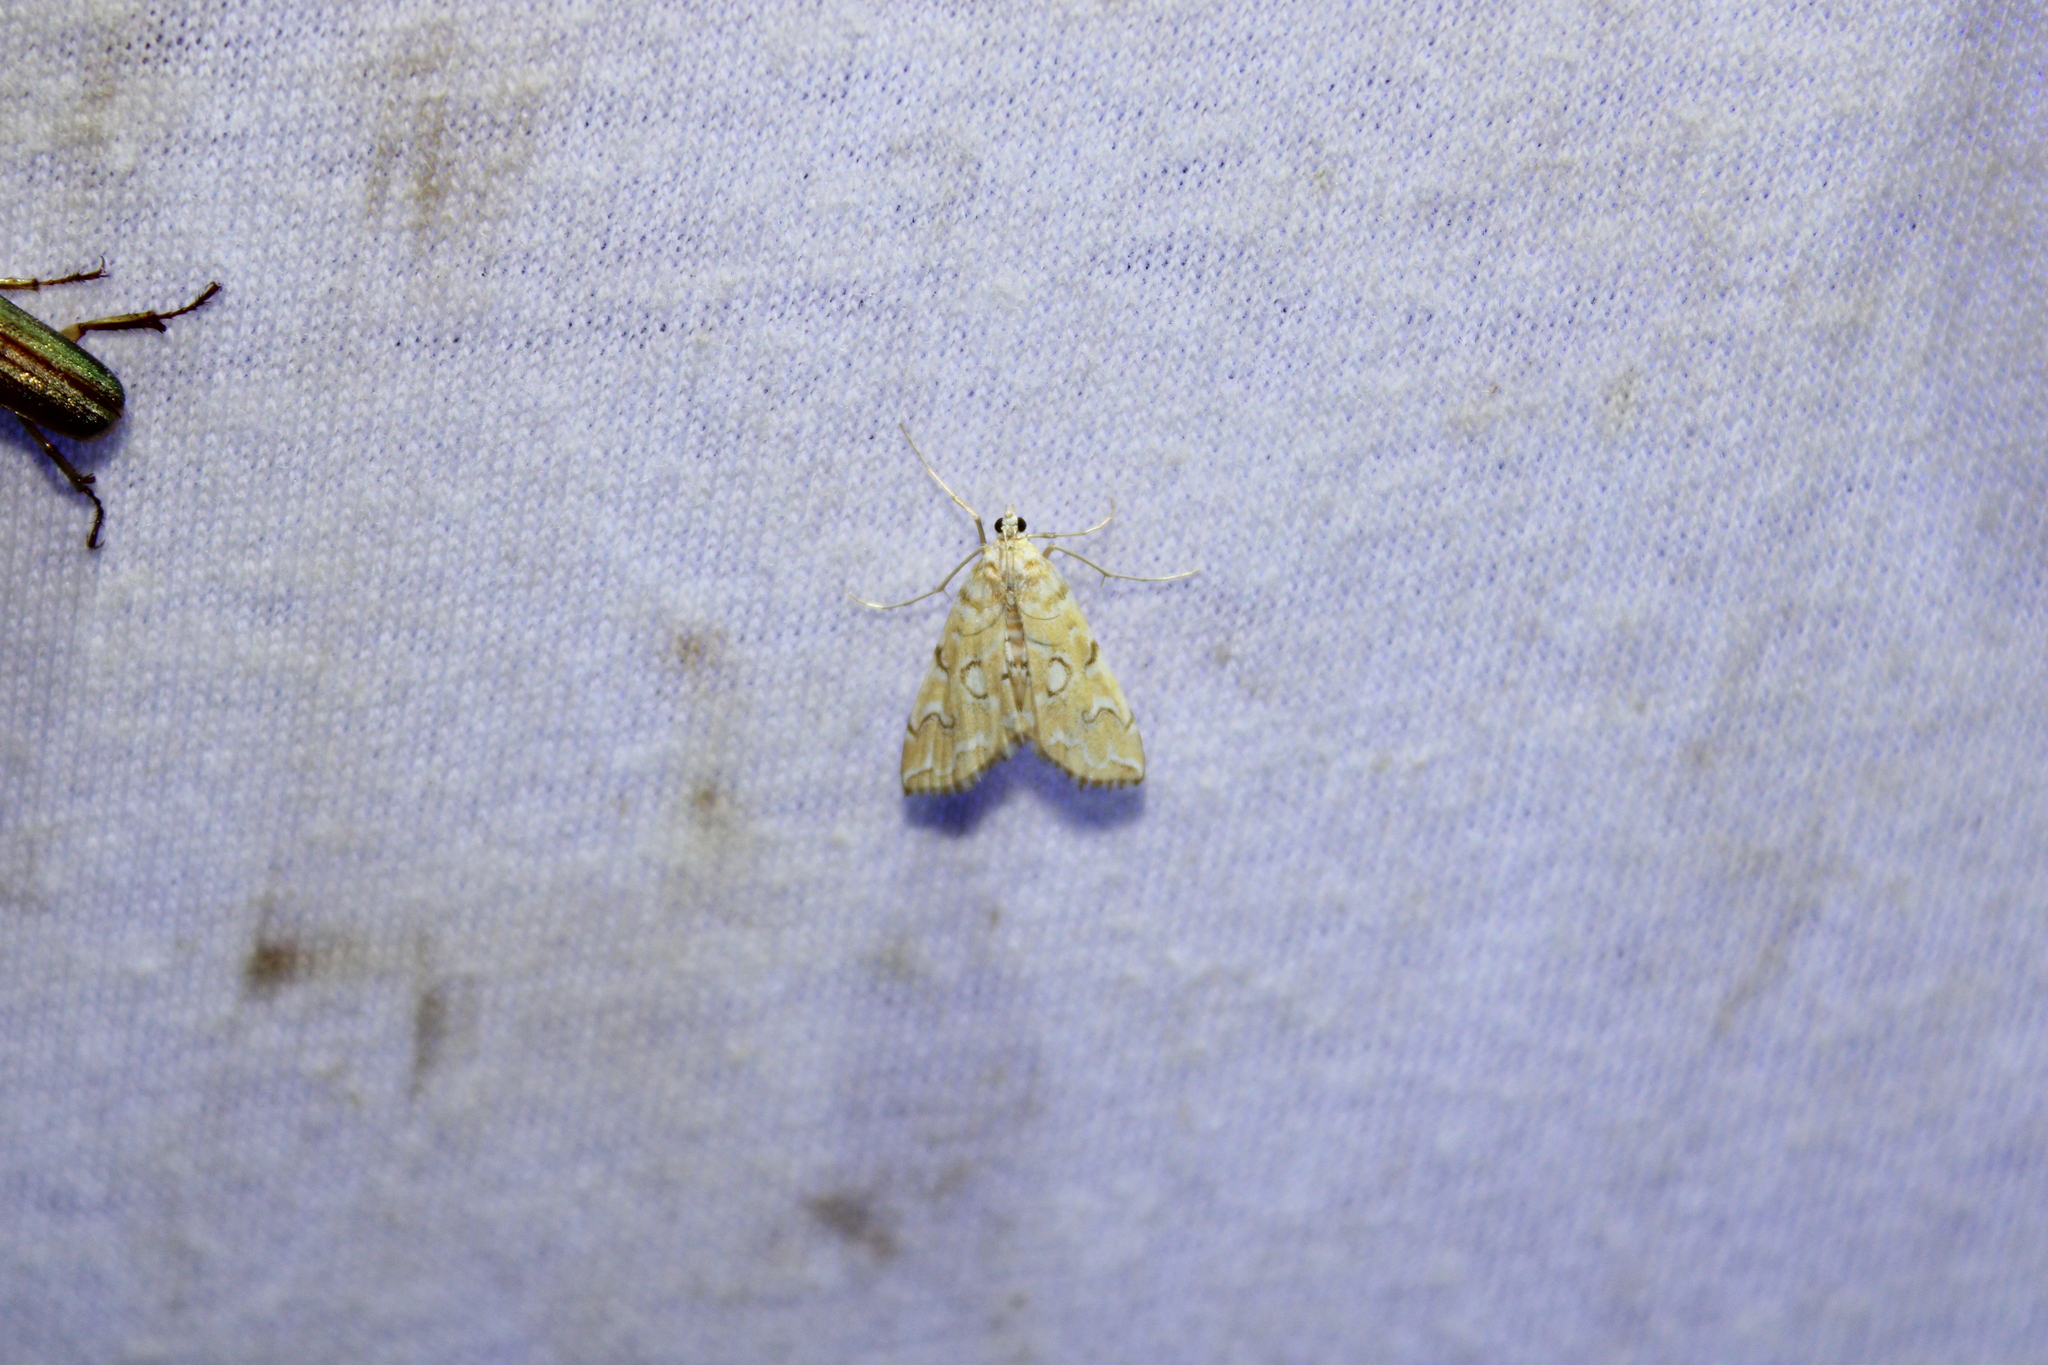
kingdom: Animalia
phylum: Arthropoda
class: Insecta
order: Lepidoptera
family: Crambidae
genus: Elophila
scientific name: Elophila icciusalis
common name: Pondside pyralid moth
